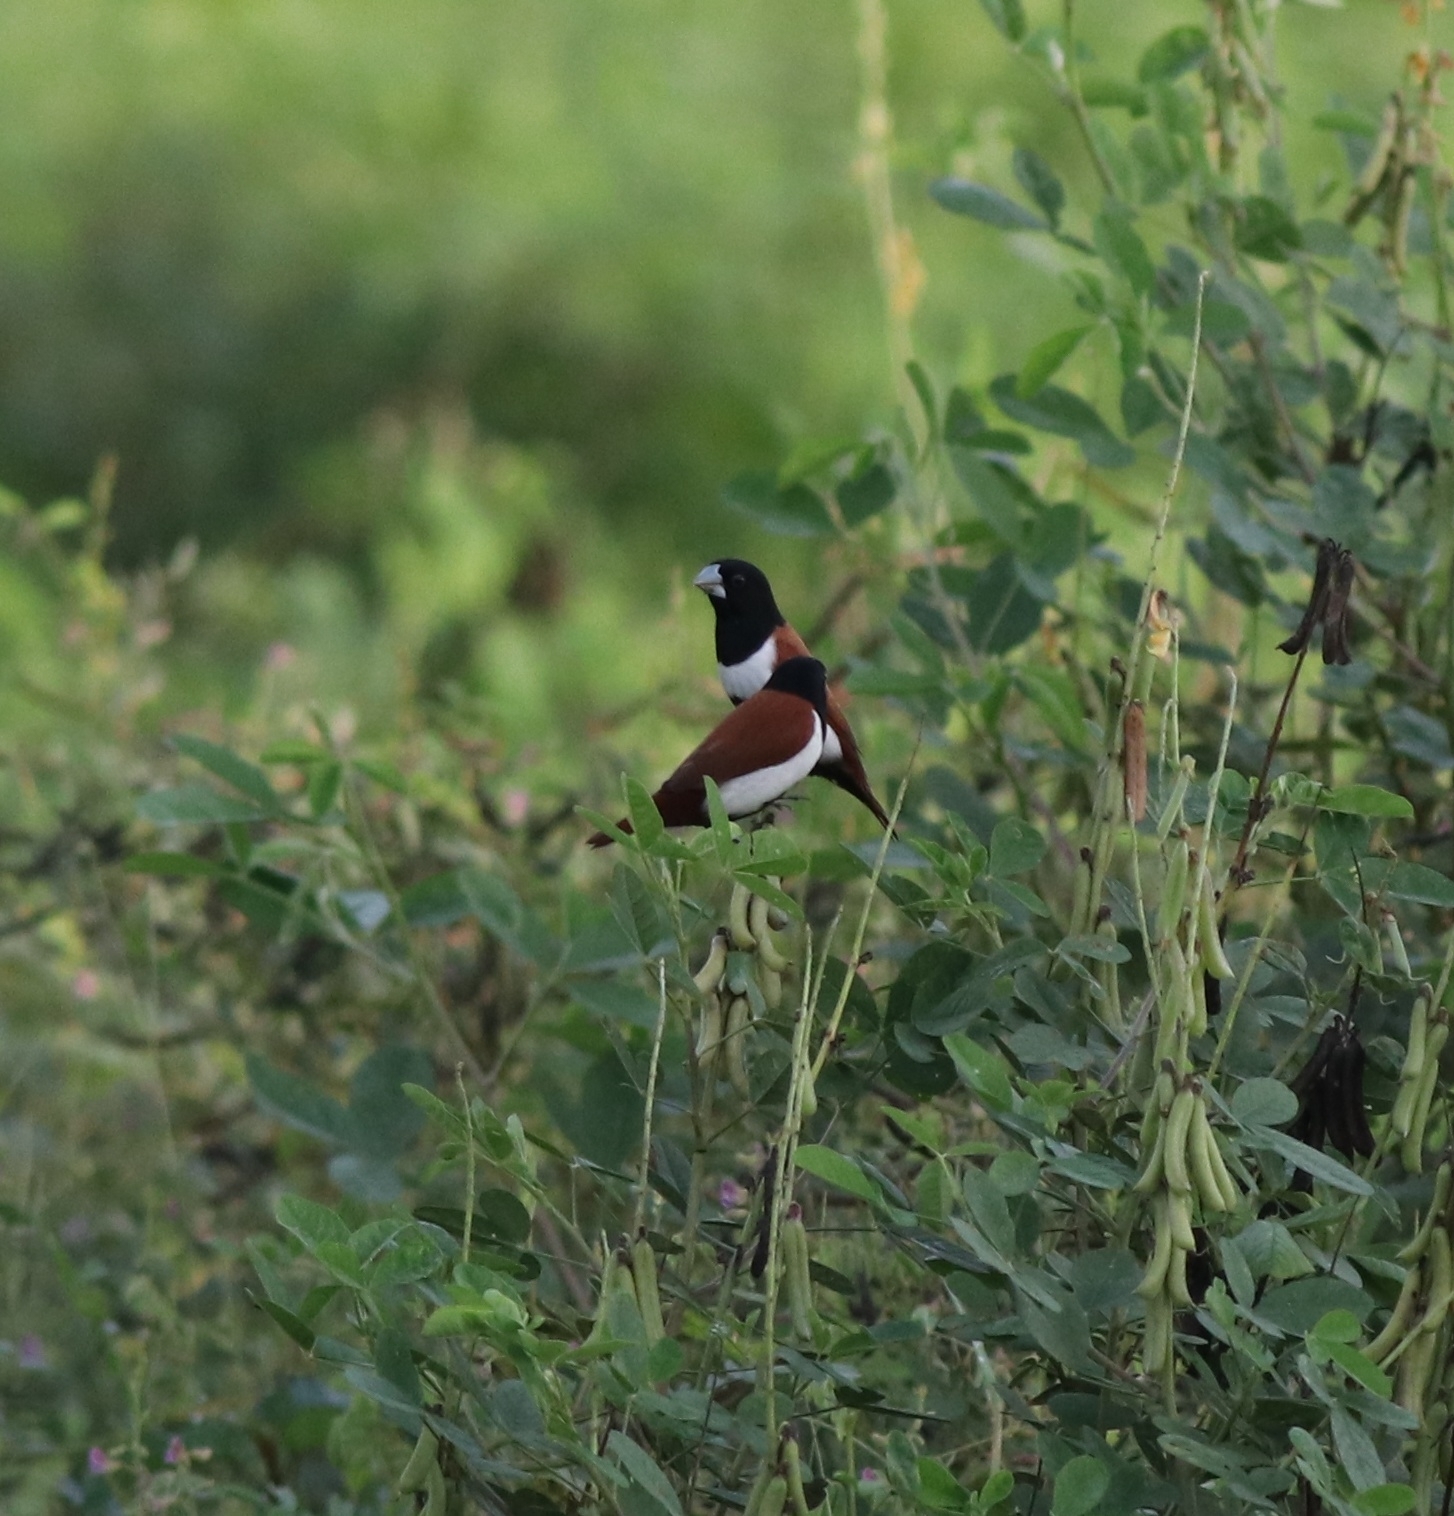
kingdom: Animalia
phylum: Chordata
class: Aves
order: Passeriformes
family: Estrildidae
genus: Lonchura
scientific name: Lonchura malacca
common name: Tricolored munia
